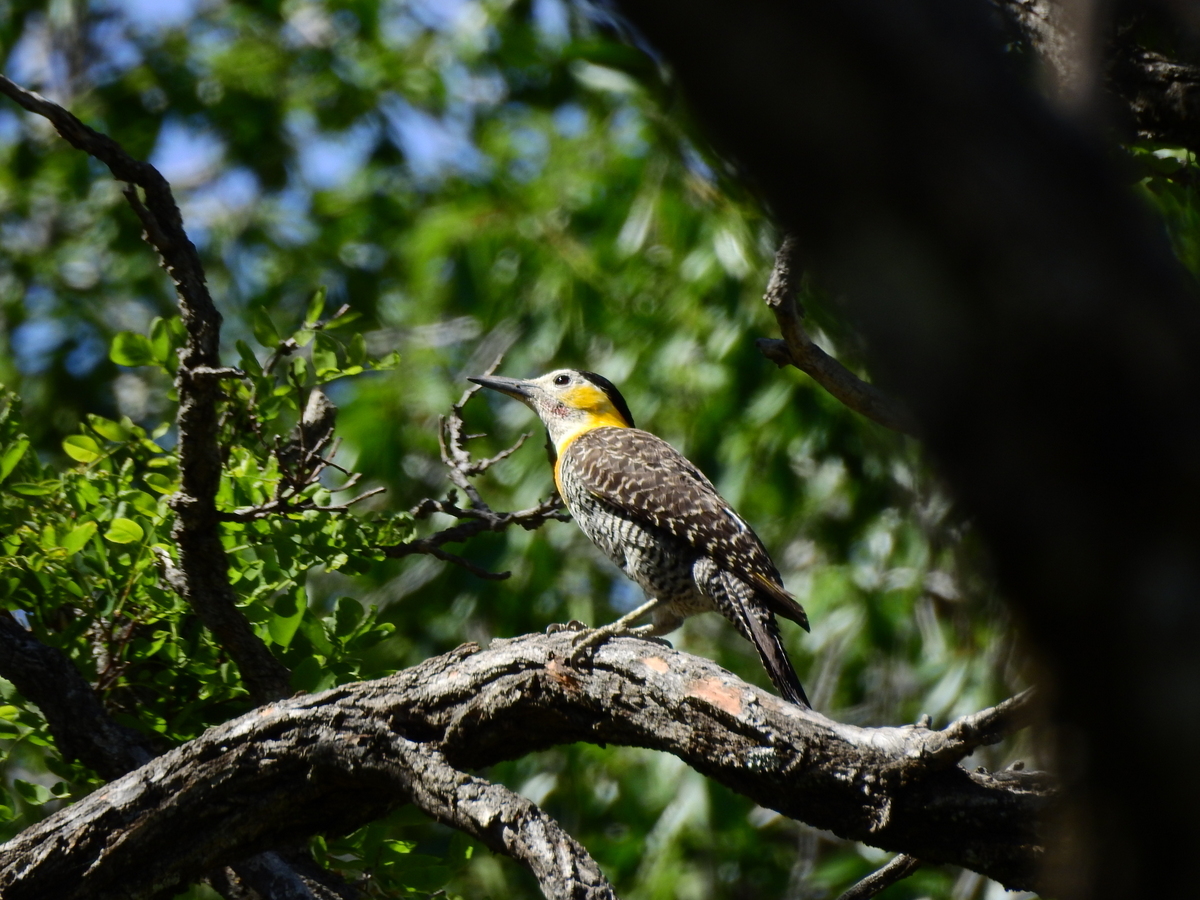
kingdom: Animalia
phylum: Chordata
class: Aves
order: Piciformes
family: Picidae
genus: Colaptes
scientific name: Colaptes campestris
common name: Campo flicker
